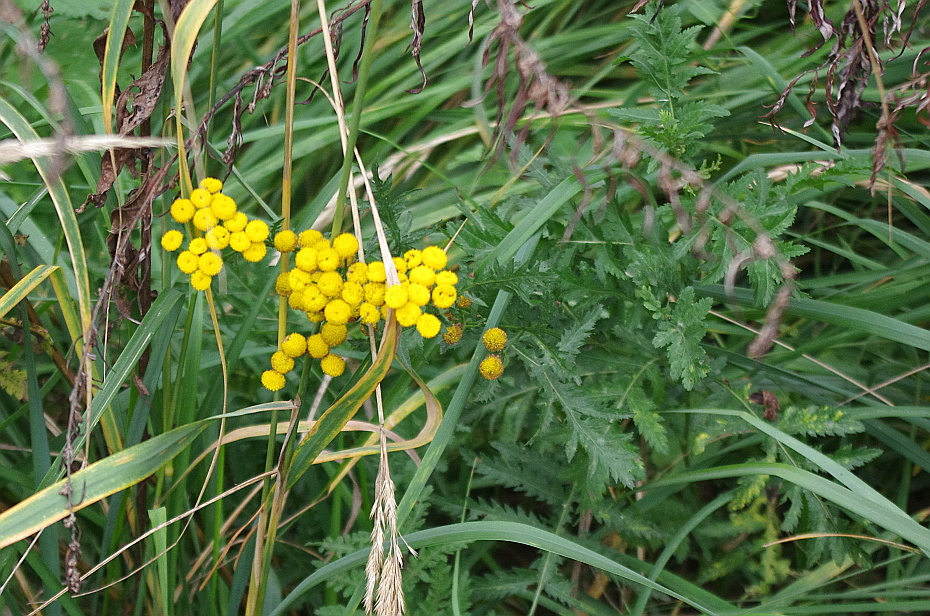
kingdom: Plantae
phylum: Tracheophyta
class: Magnoliopsida
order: Asterales
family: Asteraceae
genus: Tanacetum
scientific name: Tanacetum vulgare
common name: Common tansy
